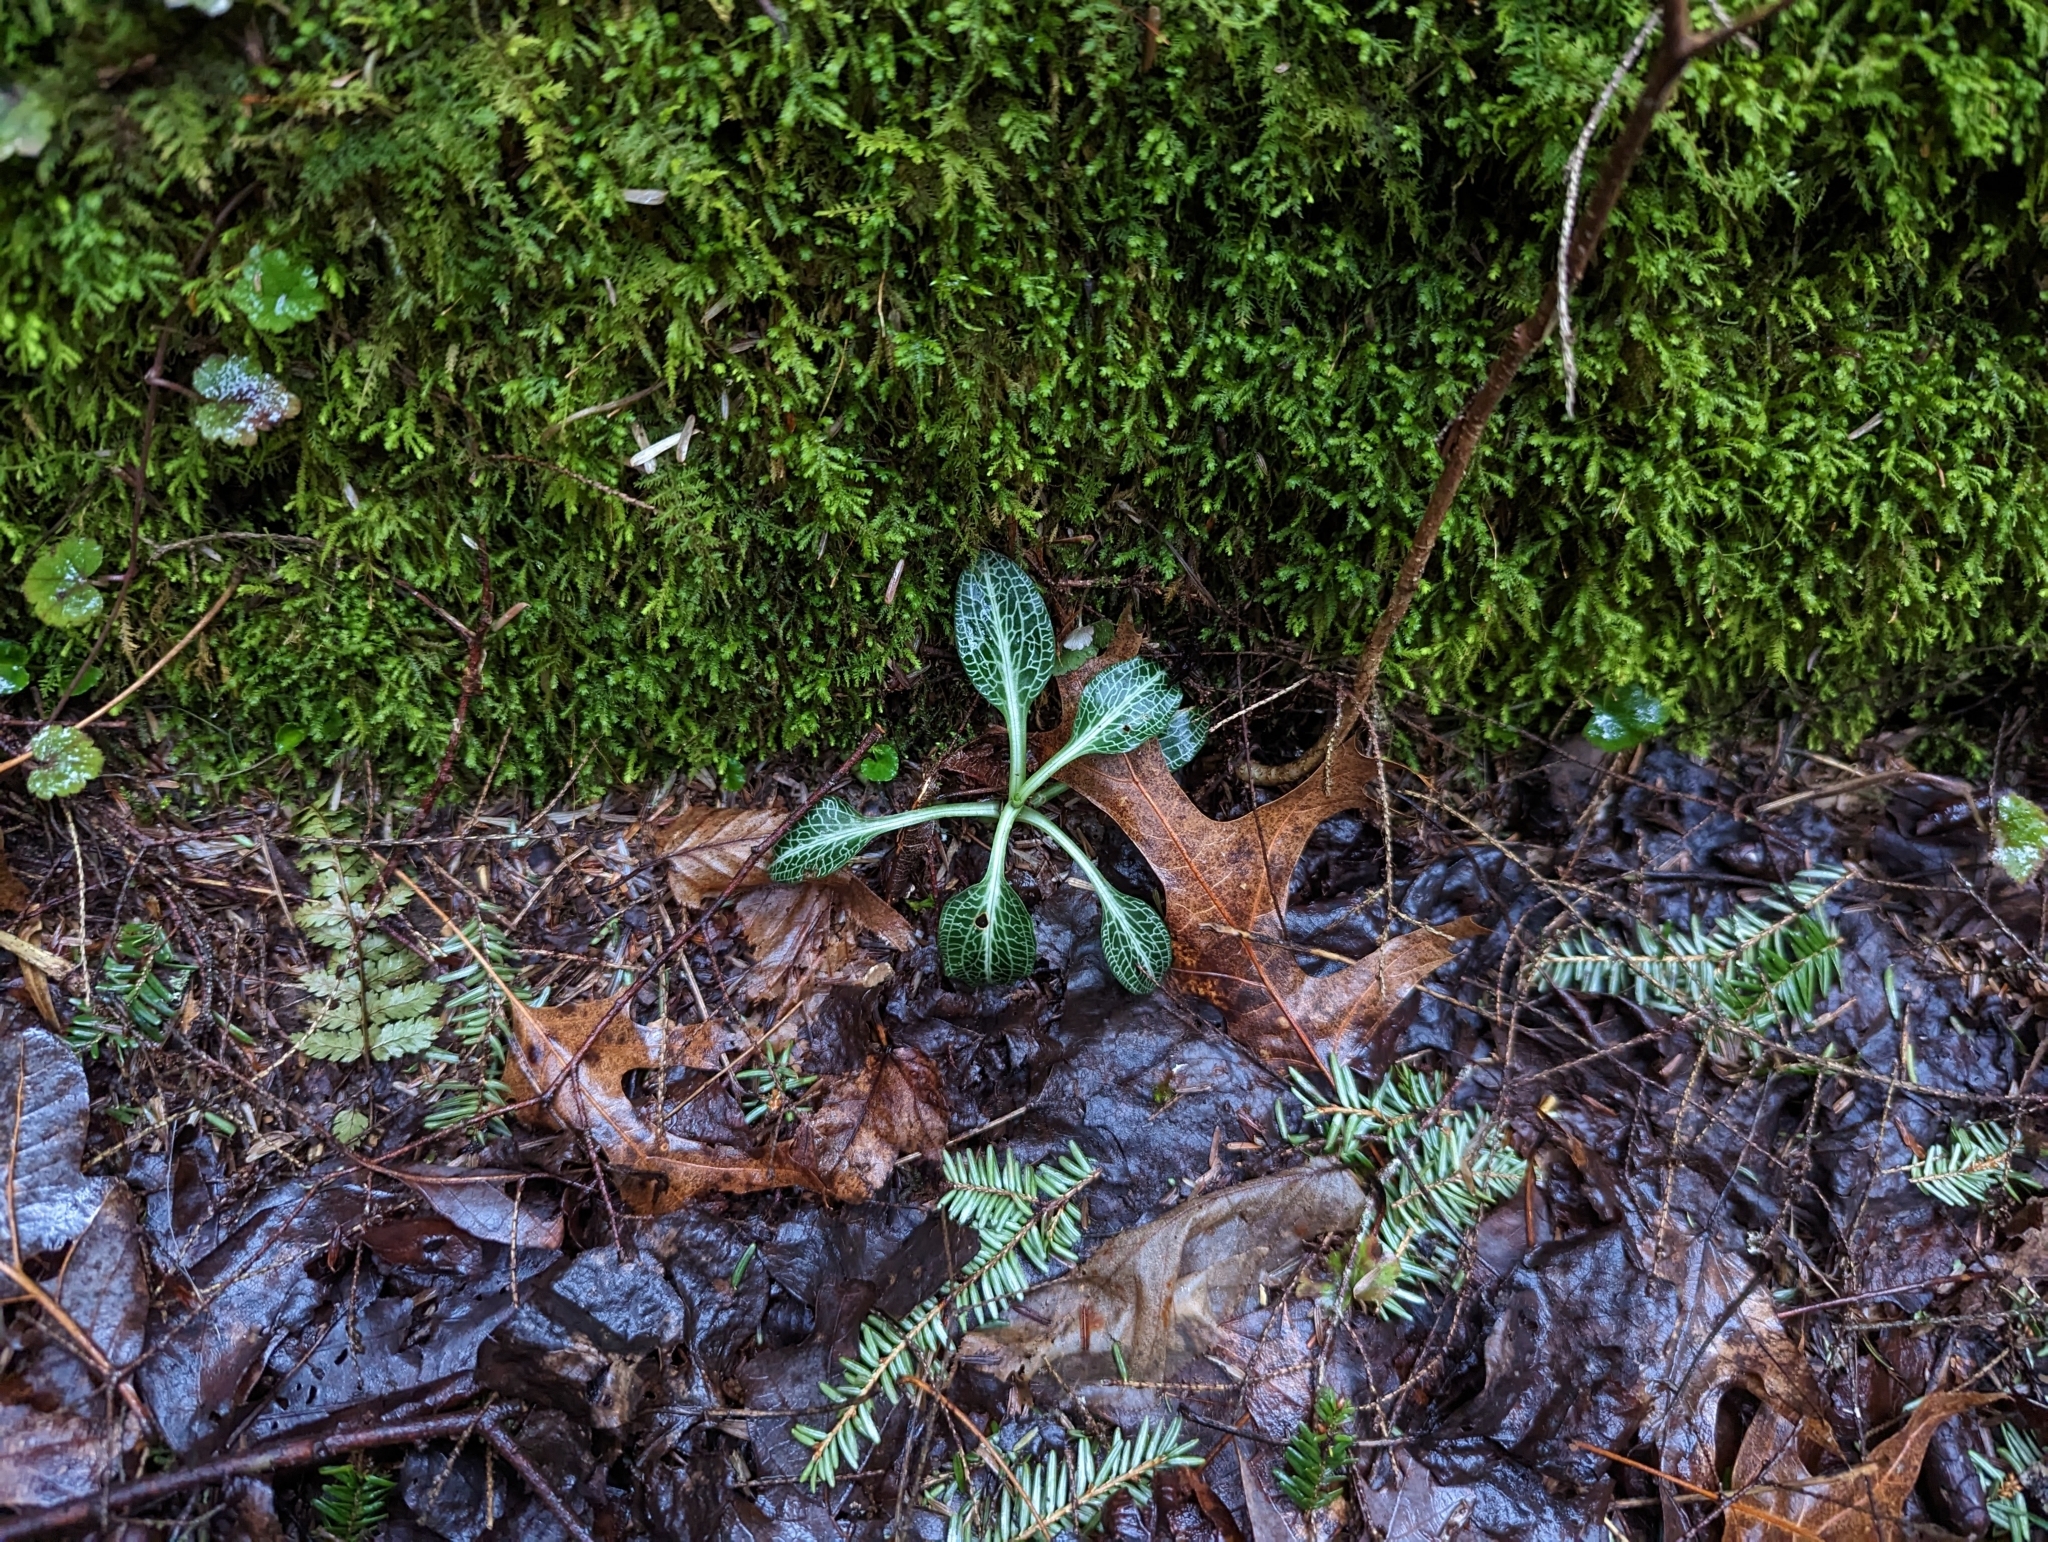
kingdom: Plantae
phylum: Tracheophyta
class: Liliopsida
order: Asparagales
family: Orchidaceae
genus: Goodyera
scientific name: Goodyera pubescens
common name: Downy rattlesnake-plantain
